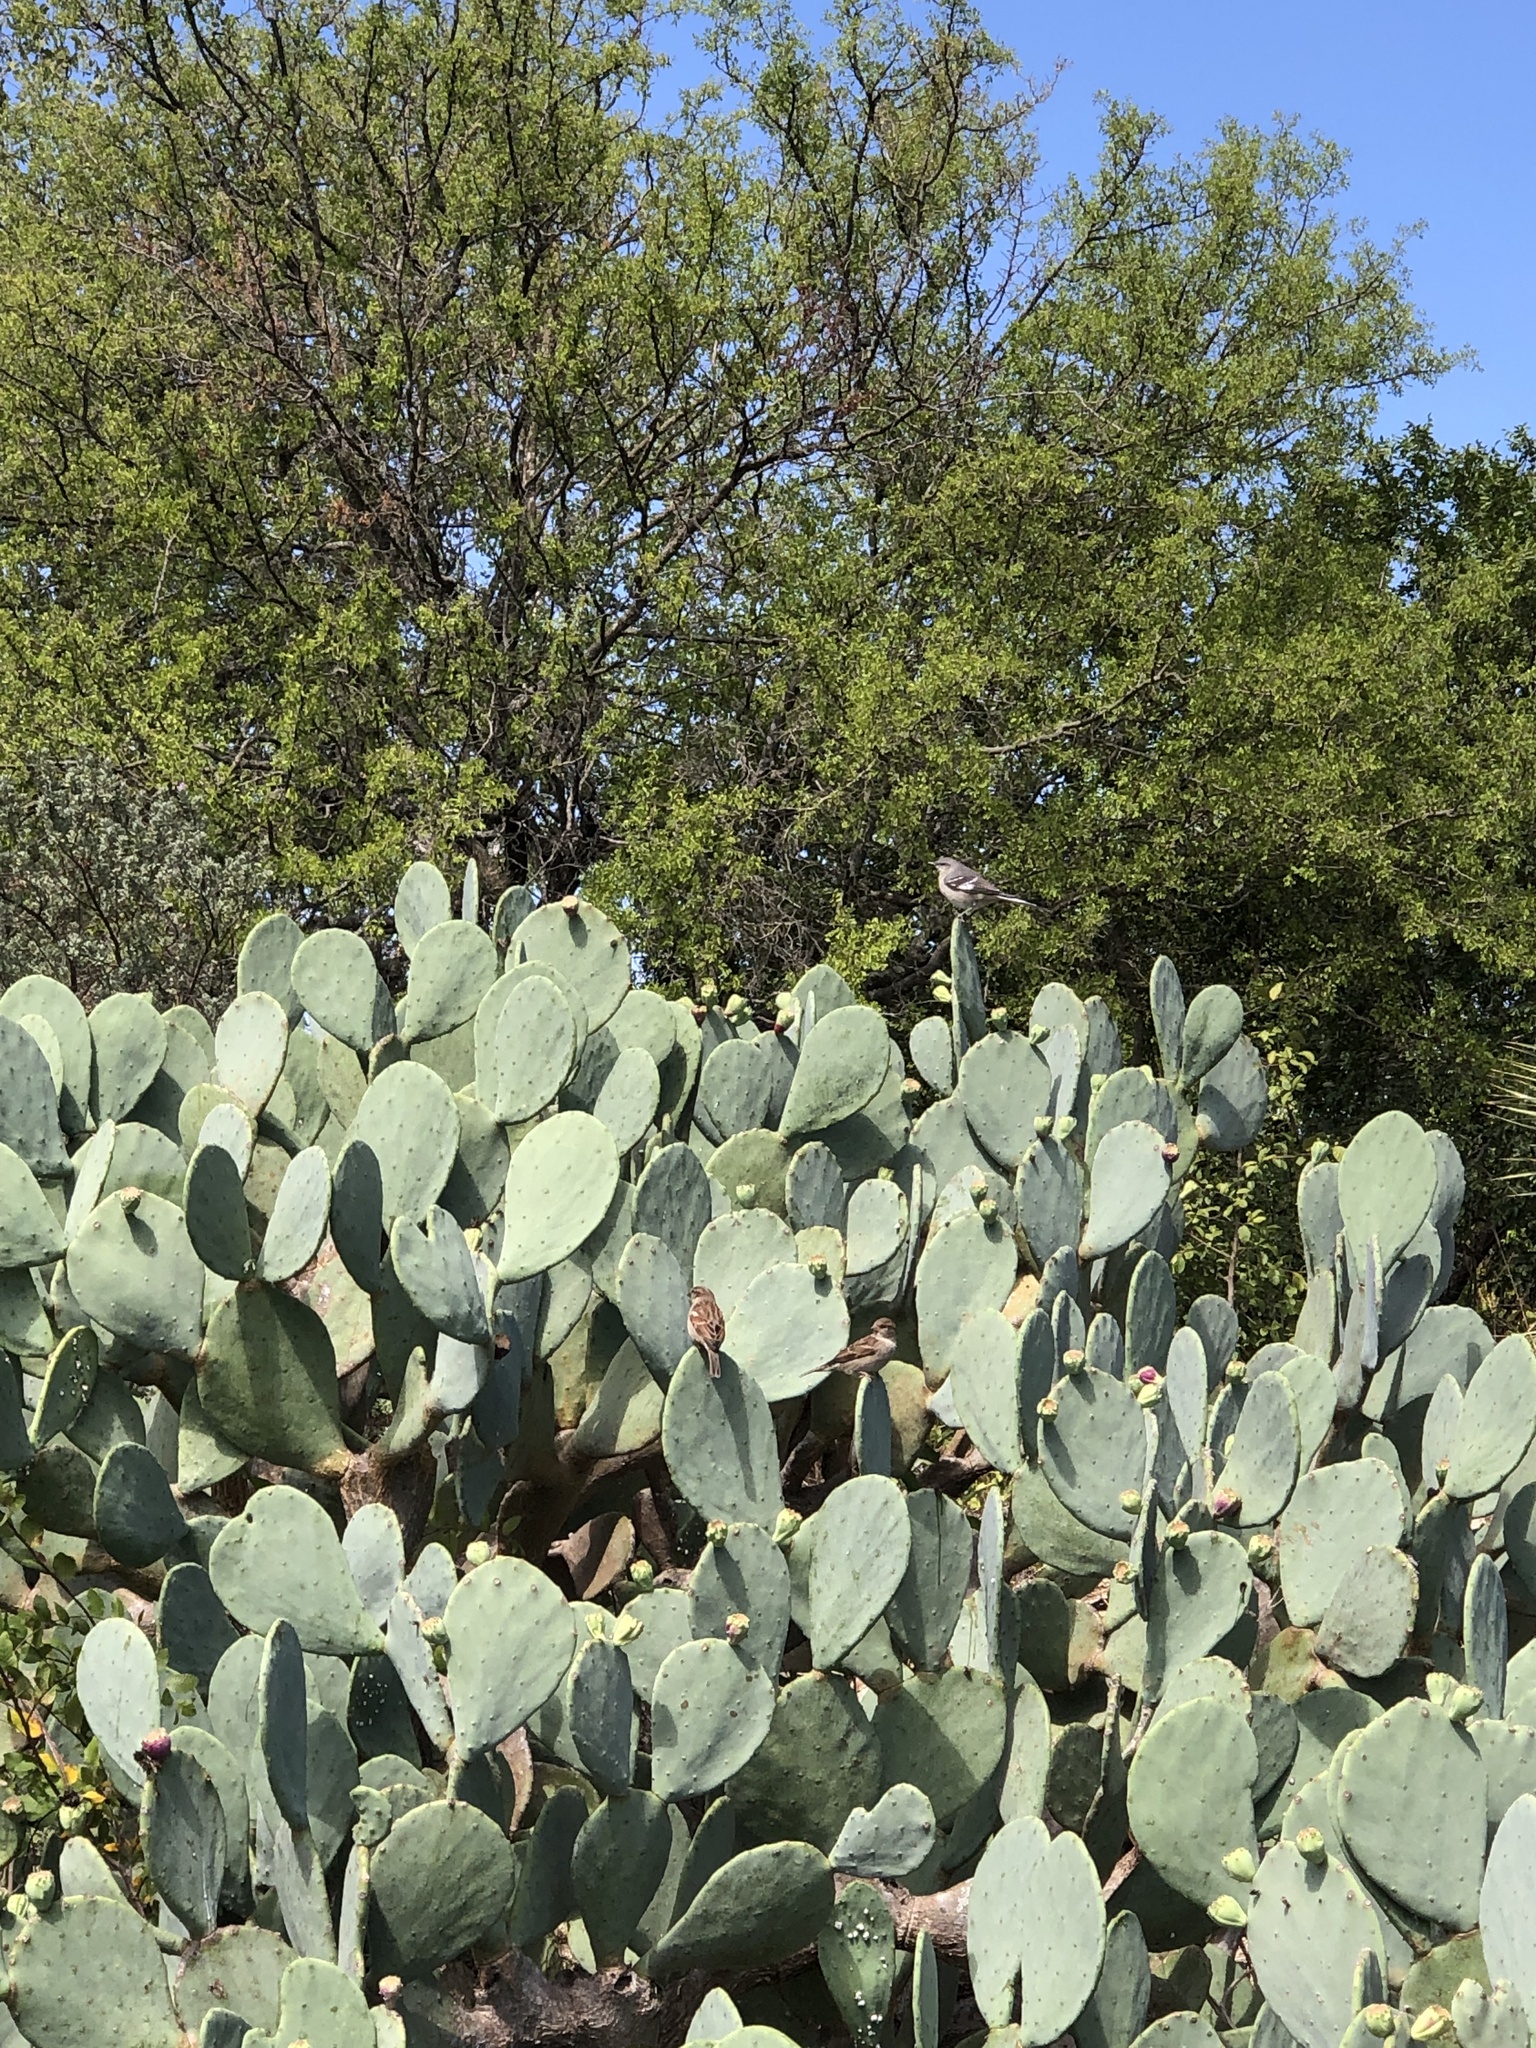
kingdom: Animalia
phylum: Chordata
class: Aves
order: Passeriformes
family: Mimidae
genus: Mimus
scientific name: Mimus polyglottos
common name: Northern mockingbird
